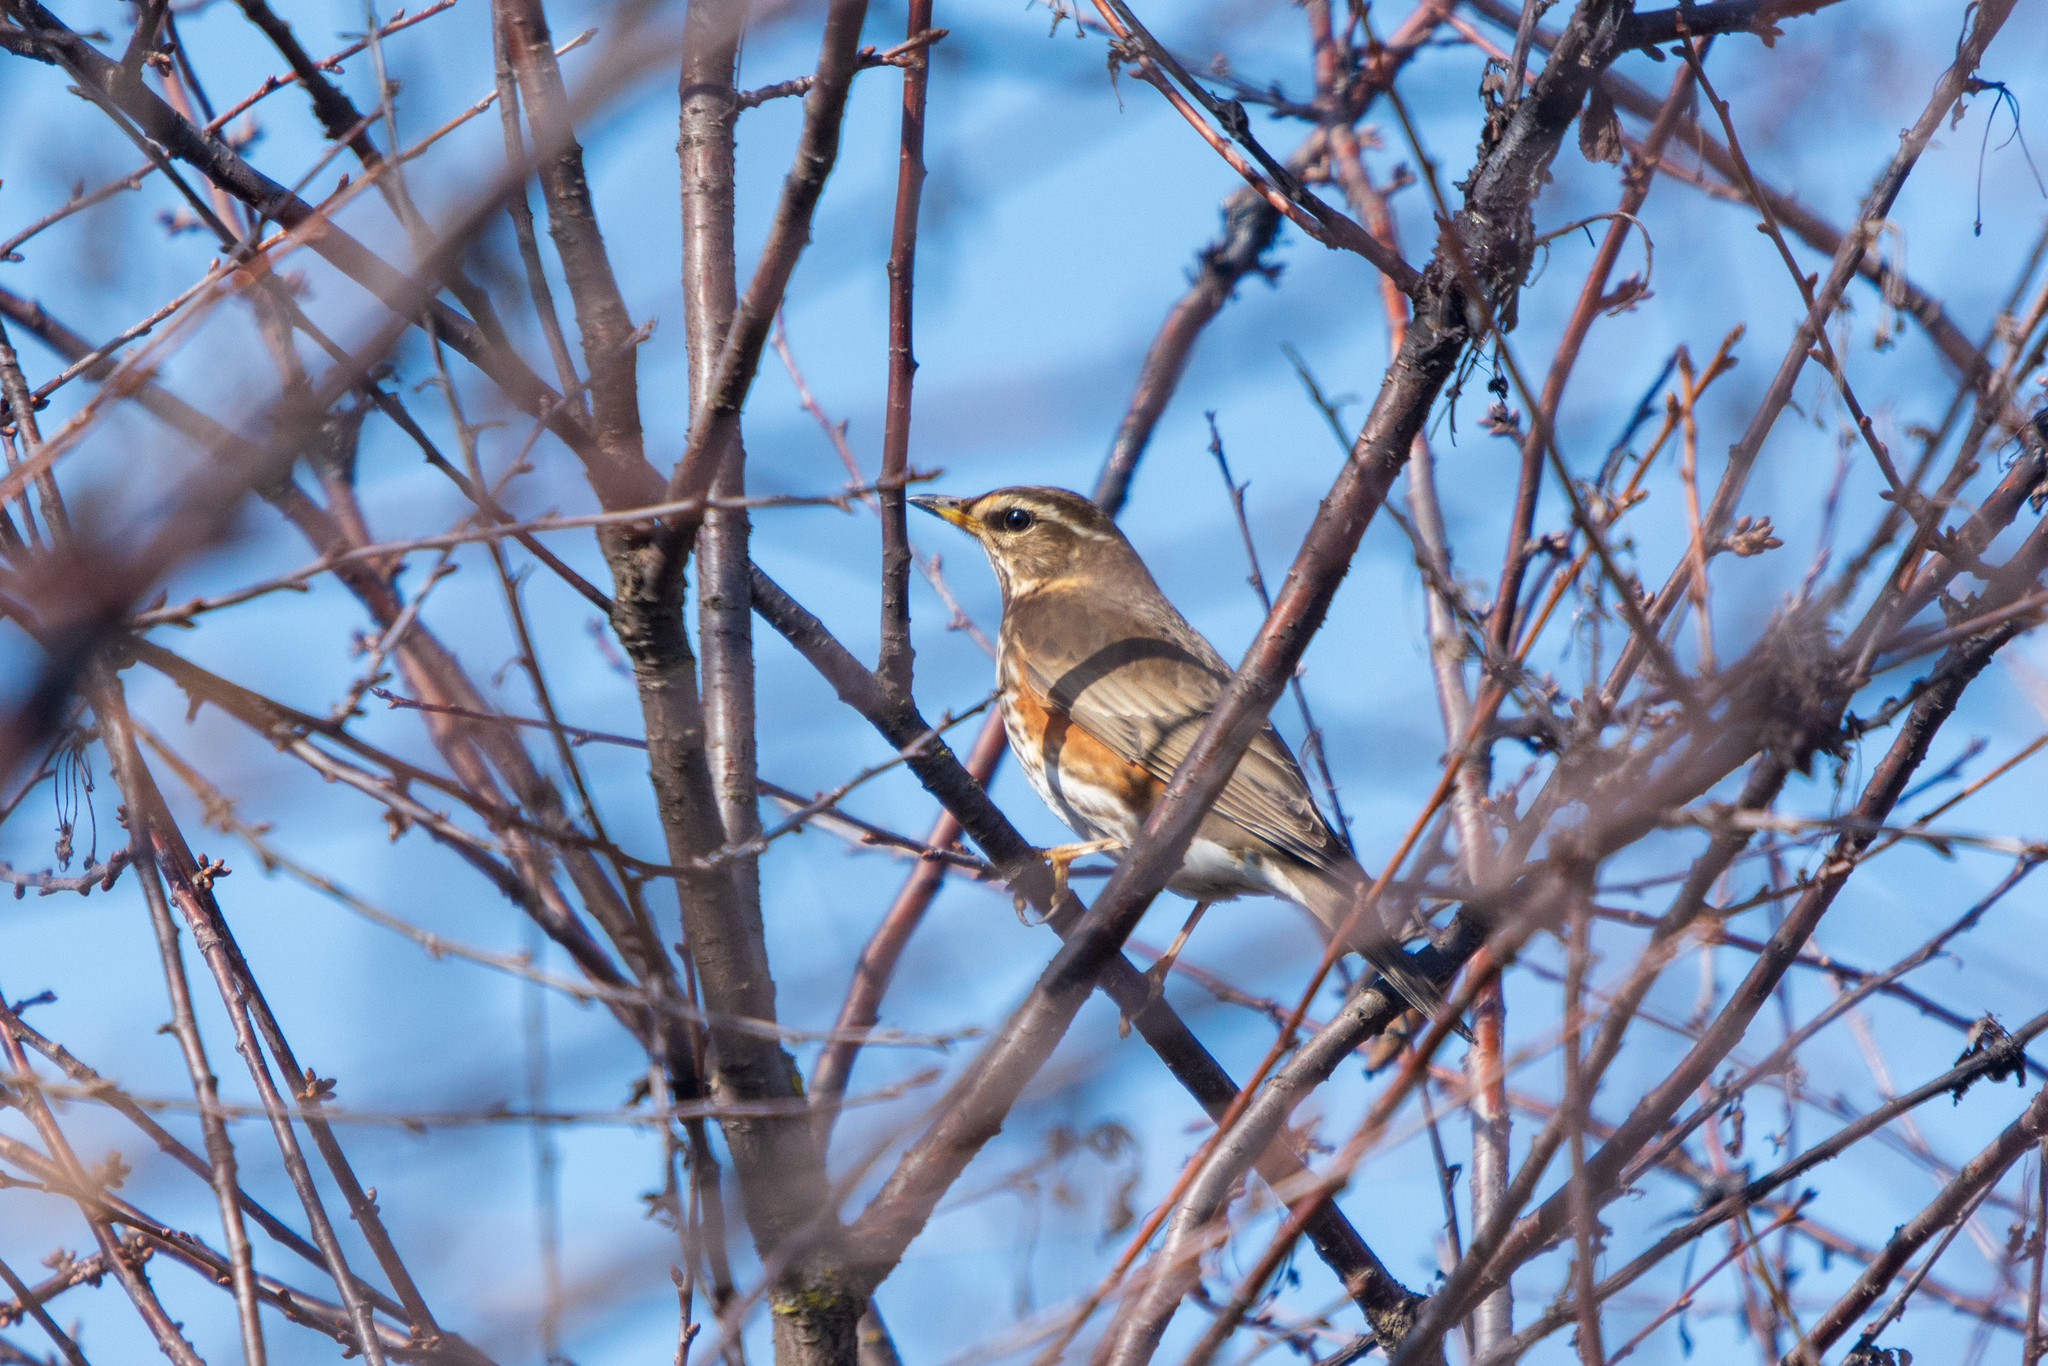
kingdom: Animalia
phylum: Chordata
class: Aves
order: Passeriformes
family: Turdidae
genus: Turdus
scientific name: Turdus iliacus
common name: Redwing
